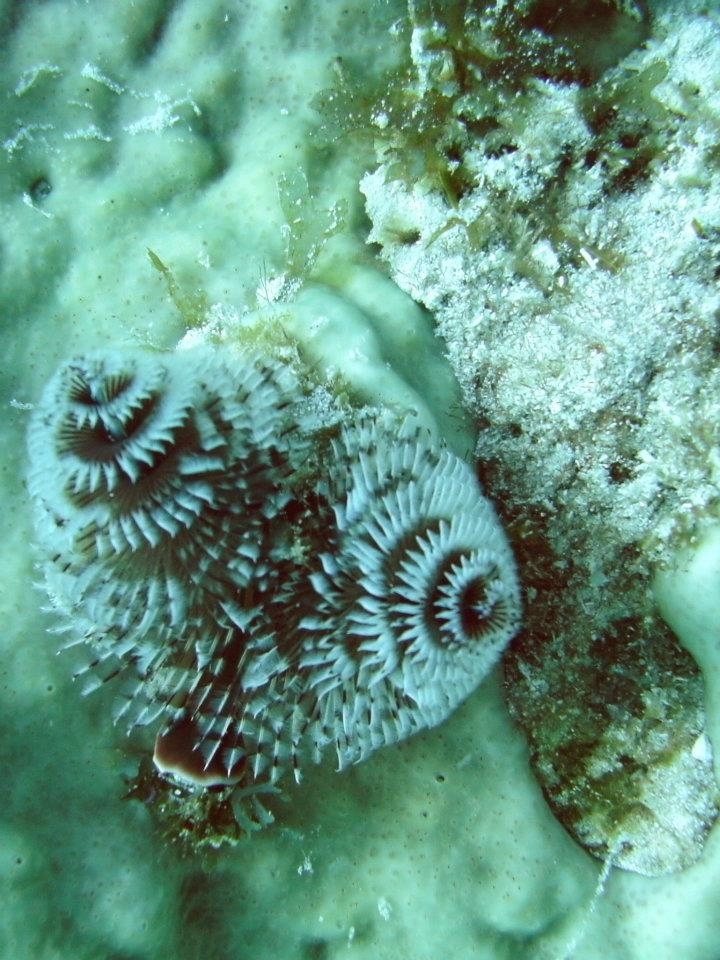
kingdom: Animalia
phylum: Annelida
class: Polychaeta
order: Sabellida
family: Serpulidae
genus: Spirobranchus
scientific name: Spirobranchus giganteus
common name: Christmas tree worm
